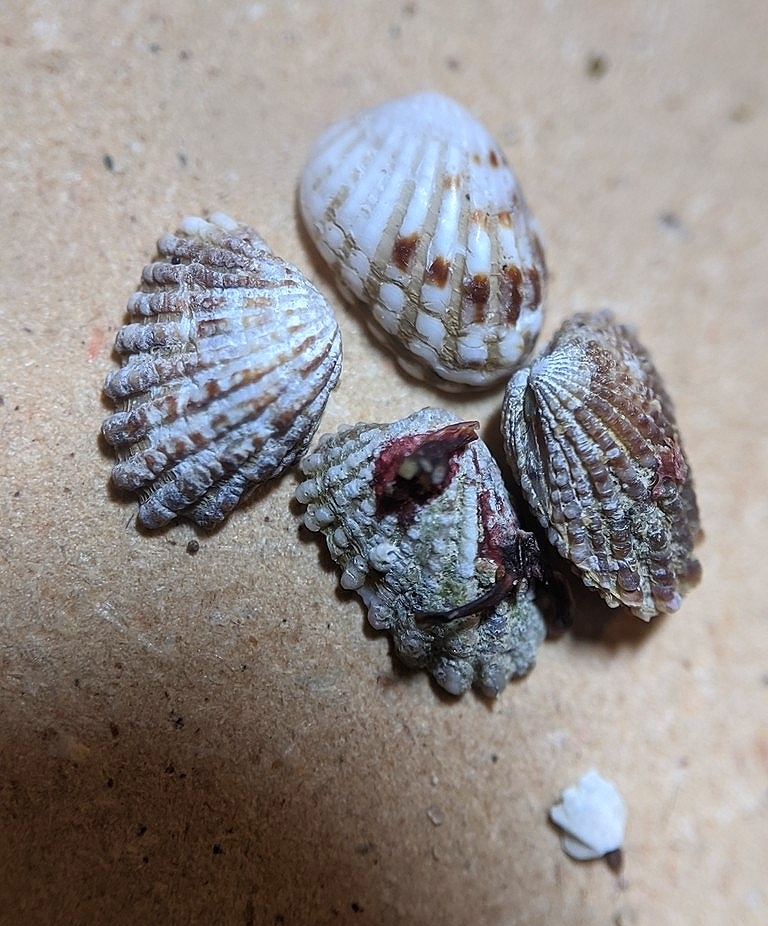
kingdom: Animalia
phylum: Mollusca
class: Bivalvia
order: Carditida
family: Carditidae
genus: Glans
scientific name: Glans carpenteri
